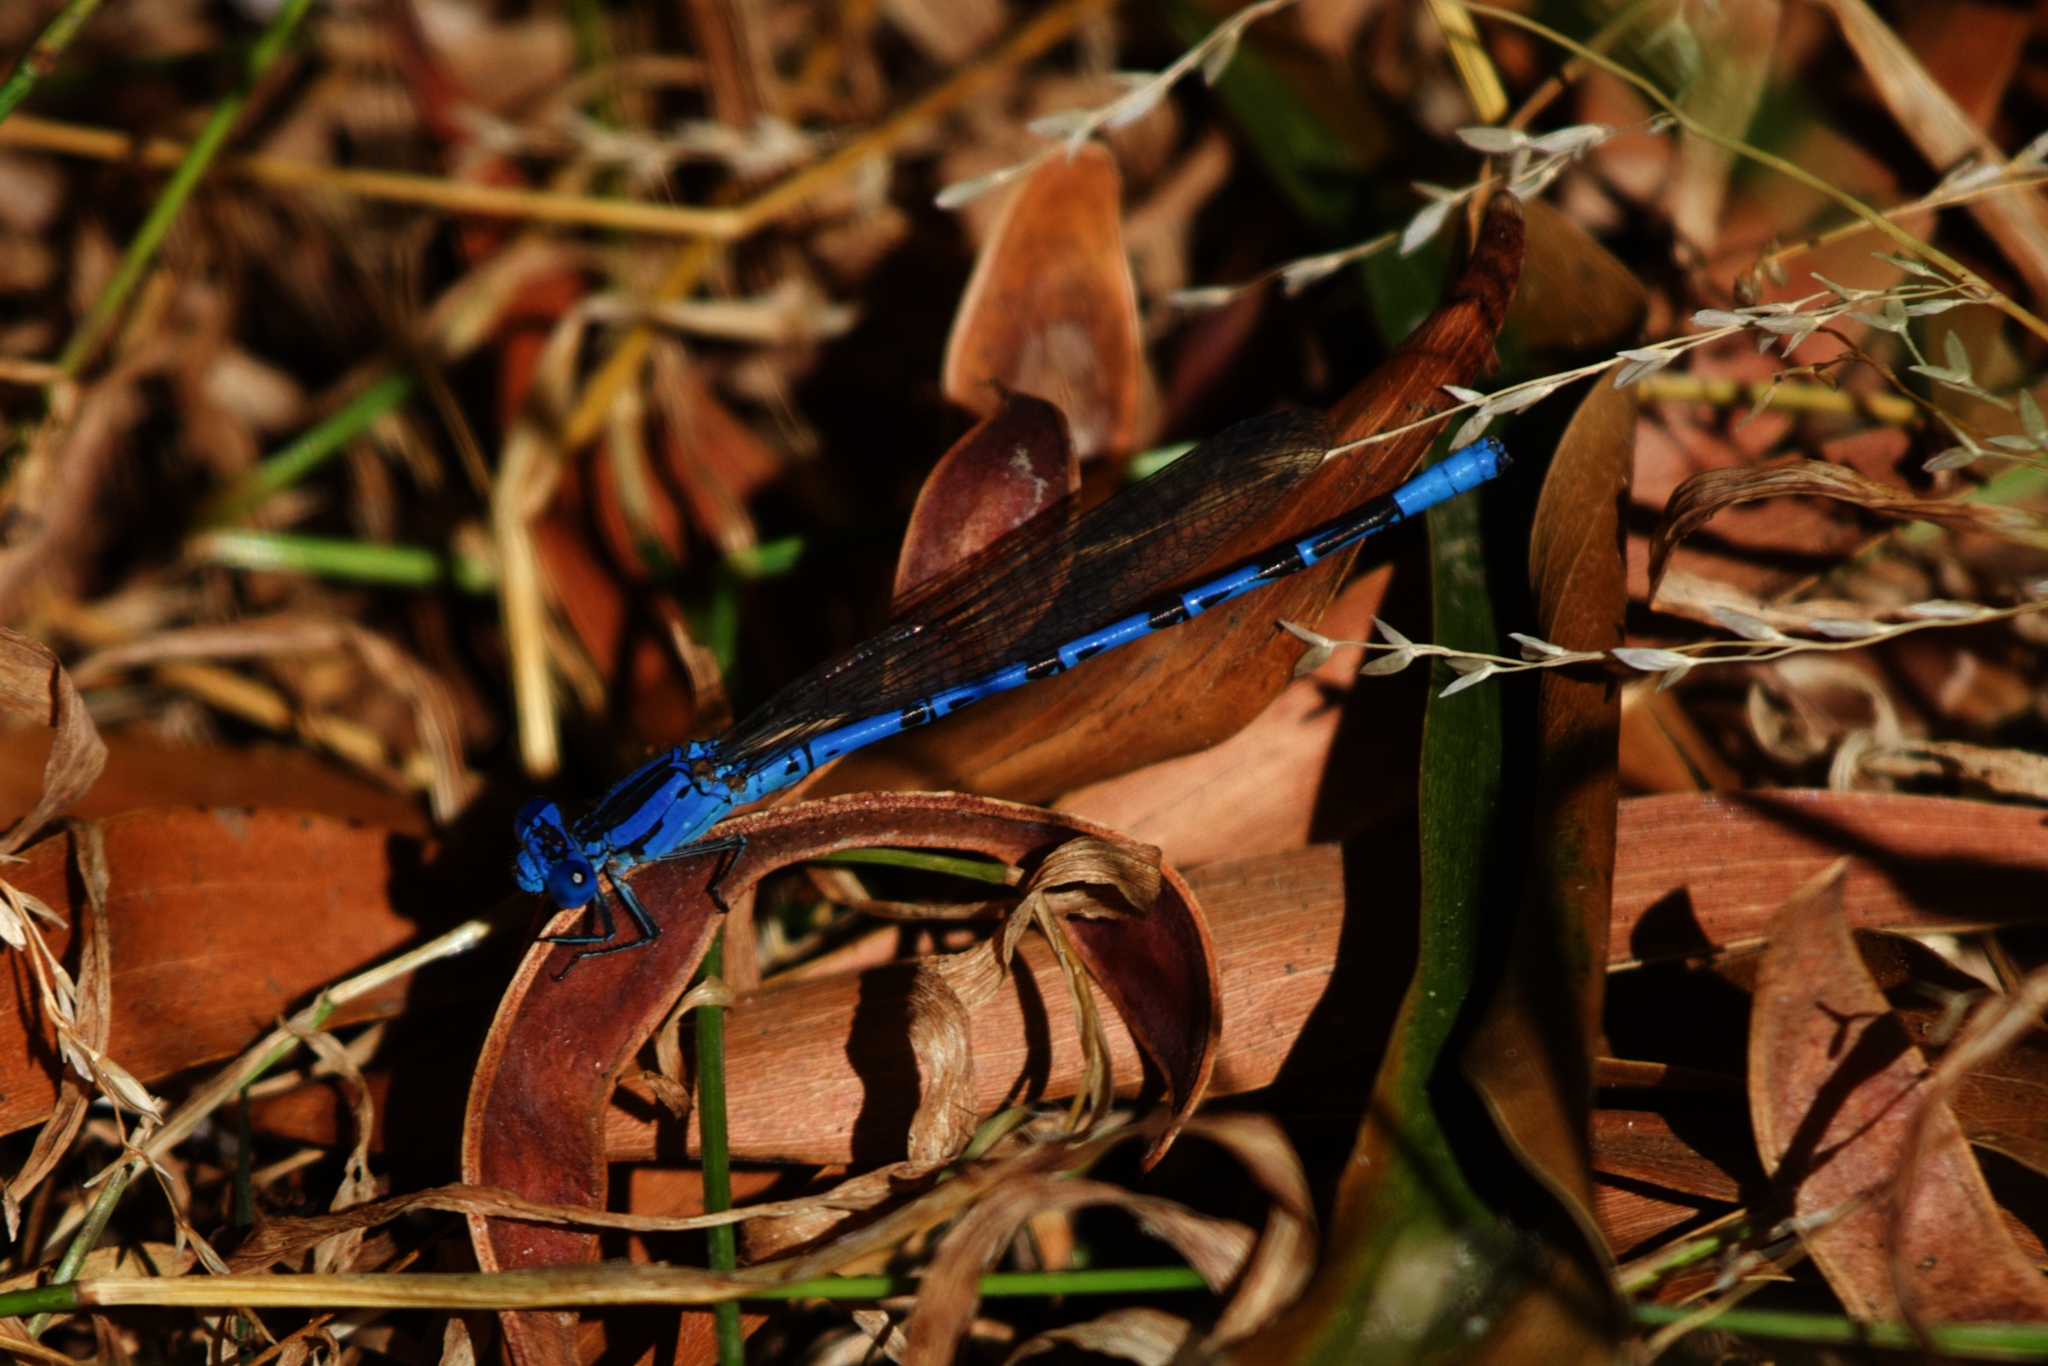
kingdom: Animalia
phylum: Arthropoda
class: Insecta
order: Odonata
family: Coenagrionidae
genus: Argia
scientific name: Argia vivida
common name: Vivid dancer
